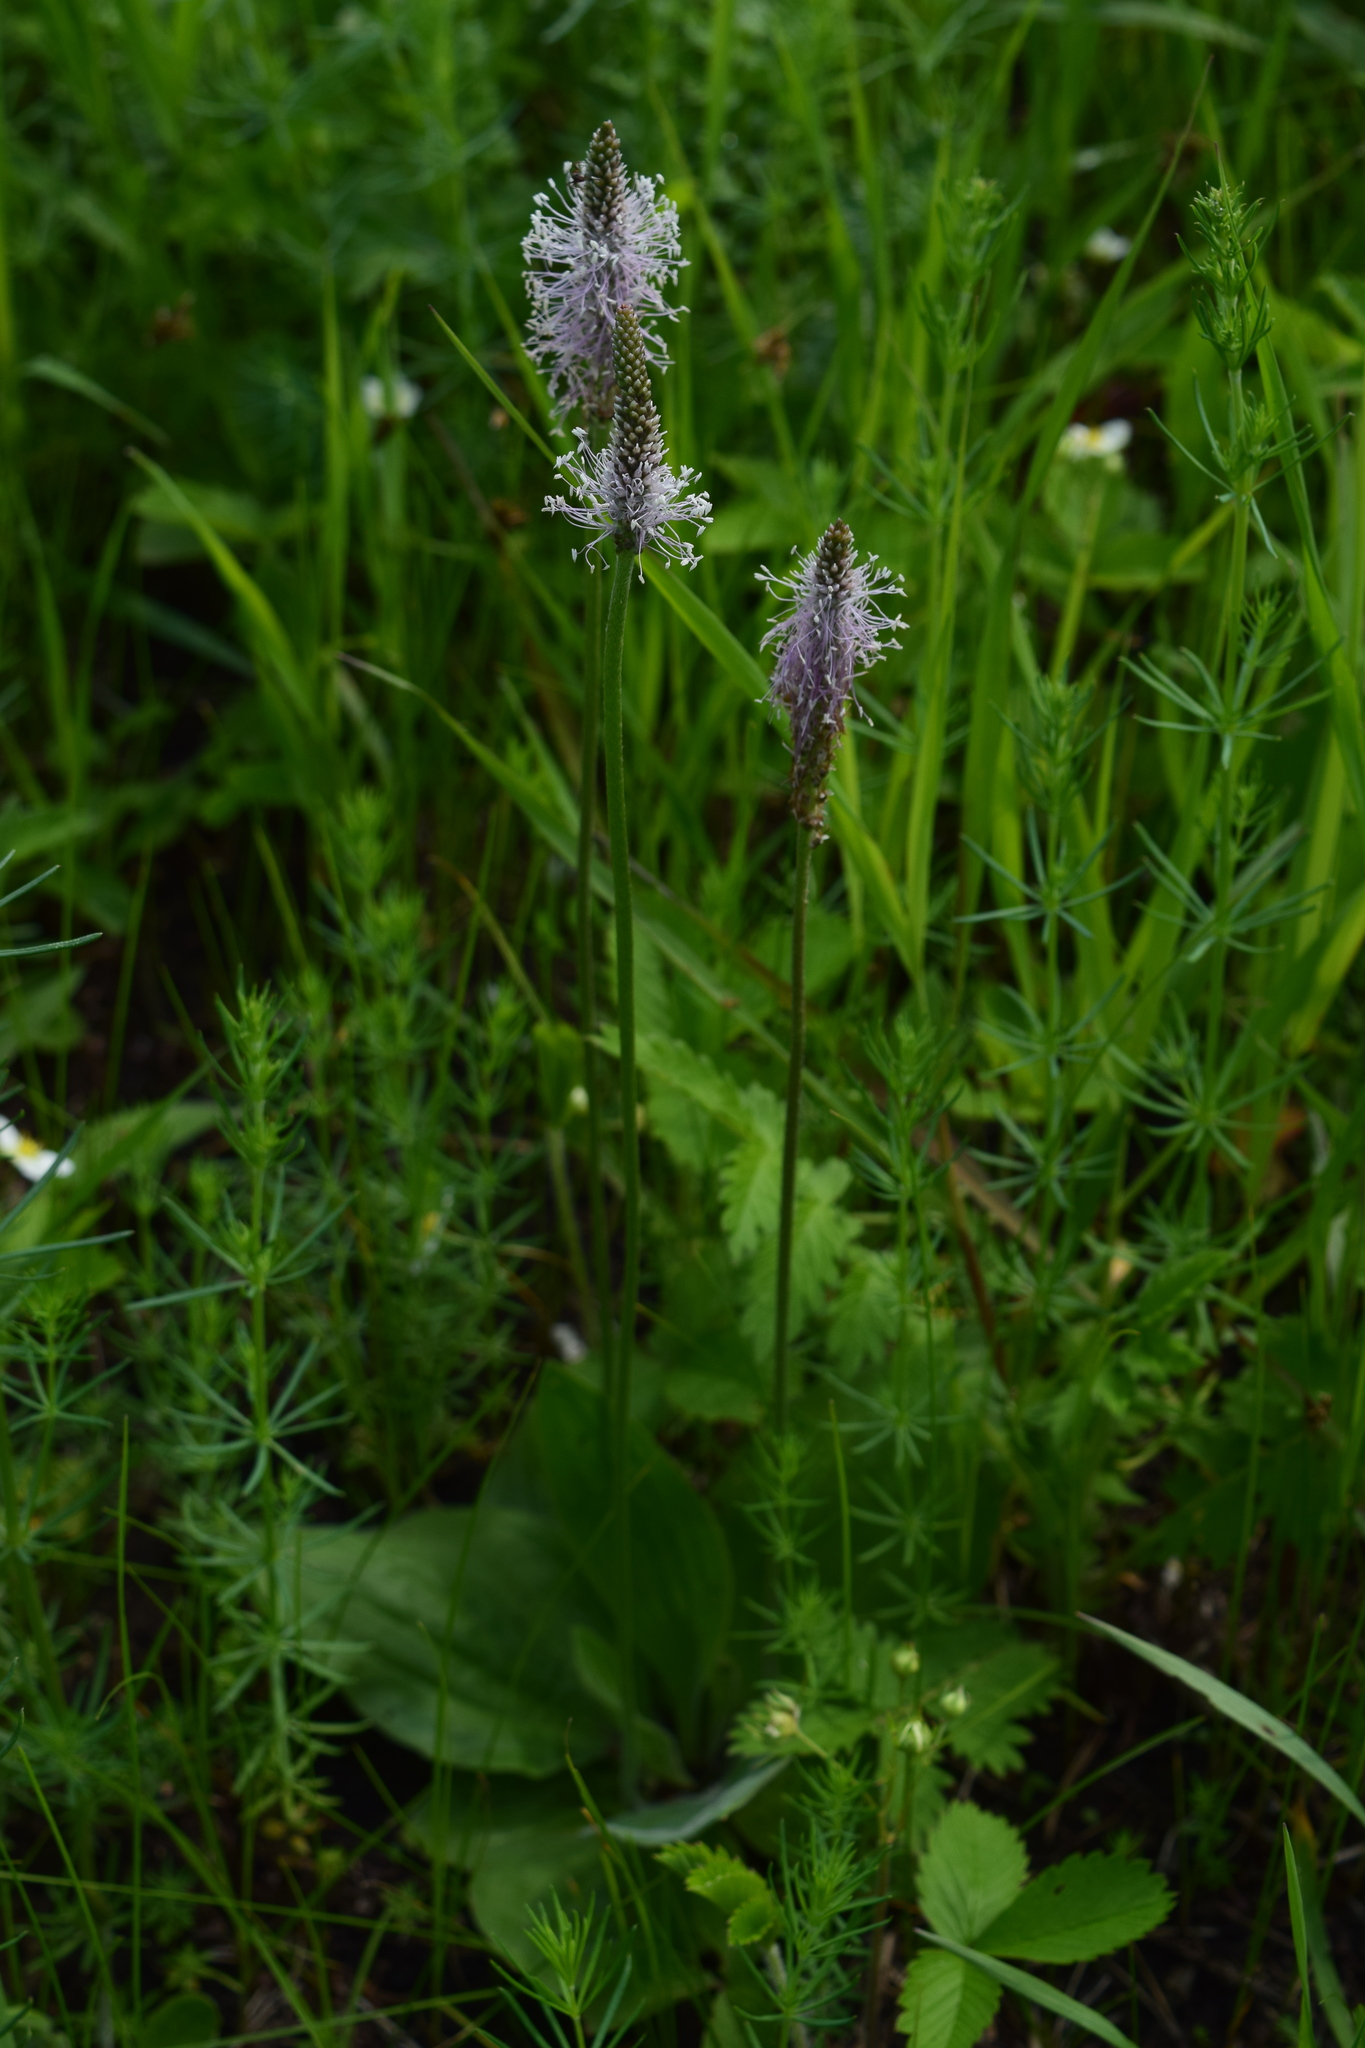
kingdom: Plantae
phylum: Tracheophyta
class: Magnoliopsida
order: Lamiales
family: Plantaginaceae
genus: Plantago
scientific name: Plantago media
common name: Hoary plantain
